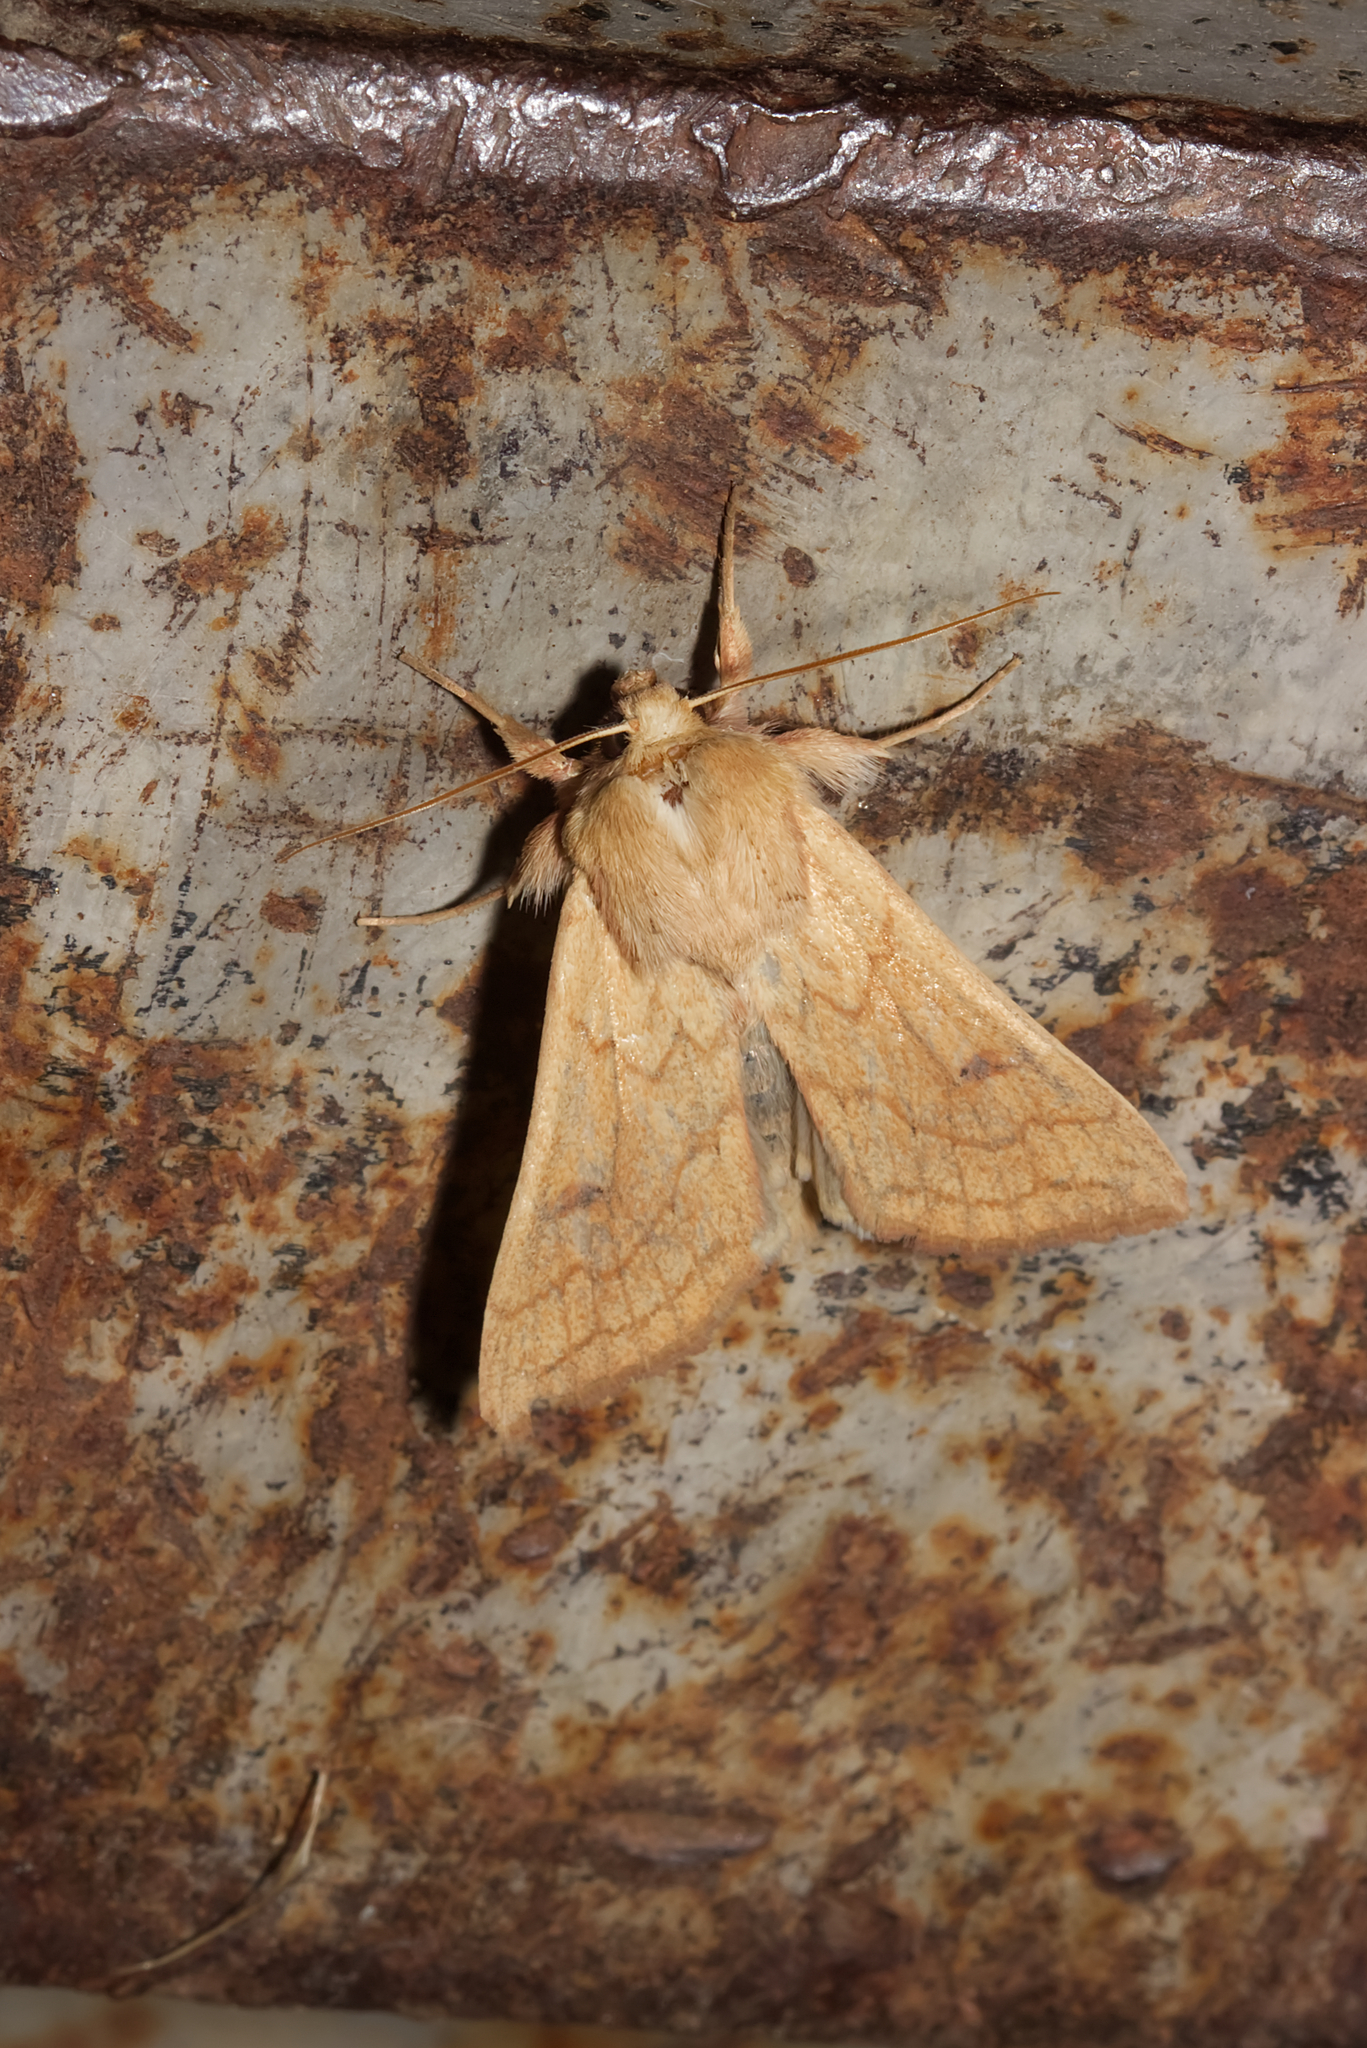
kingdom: Animalia
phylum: Arthropoda
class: Insecta
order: Lepidoptera
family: Noctuidae
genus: Mythimna
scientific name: Mythimna vitellina
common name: Delicate
